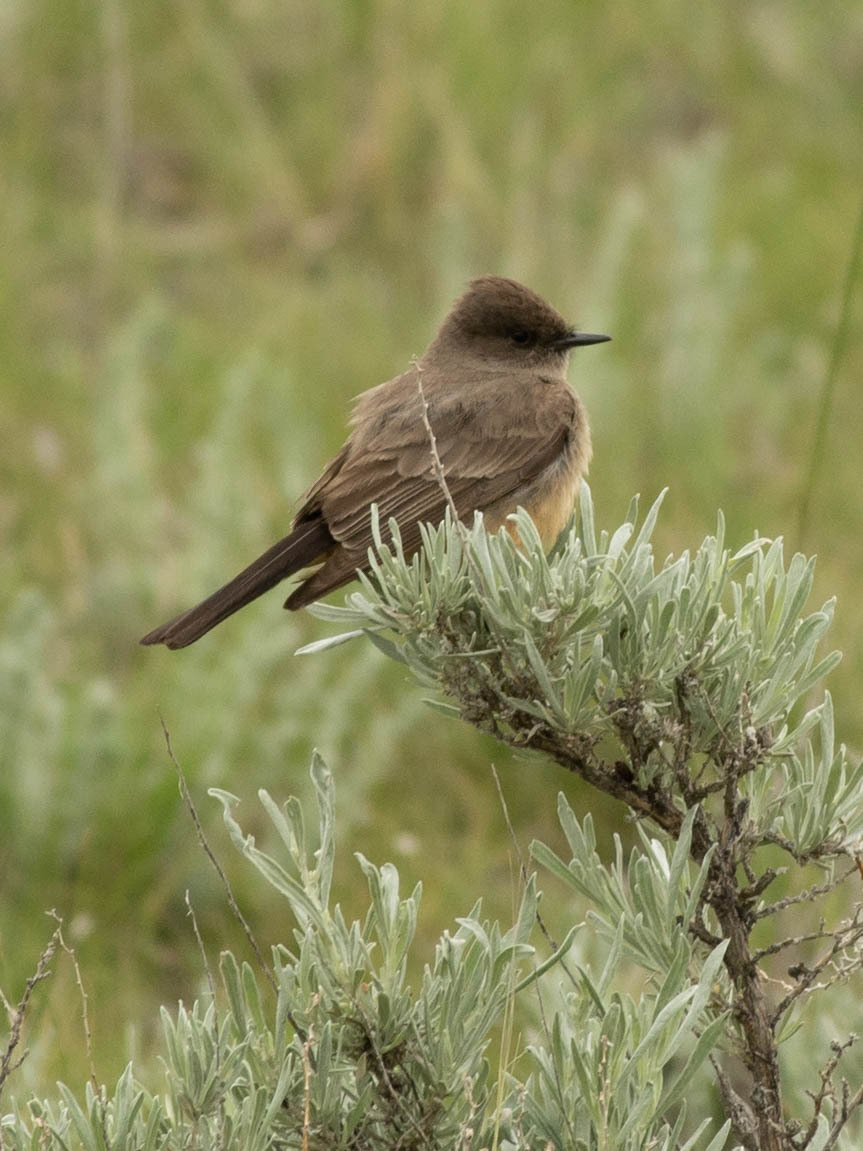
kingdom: Animalia
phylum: Chordata
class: Aves
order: Passeriformes
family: Tyrannidae
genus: Sayornis
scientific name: Sayornis saya
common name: Say's phoebe
